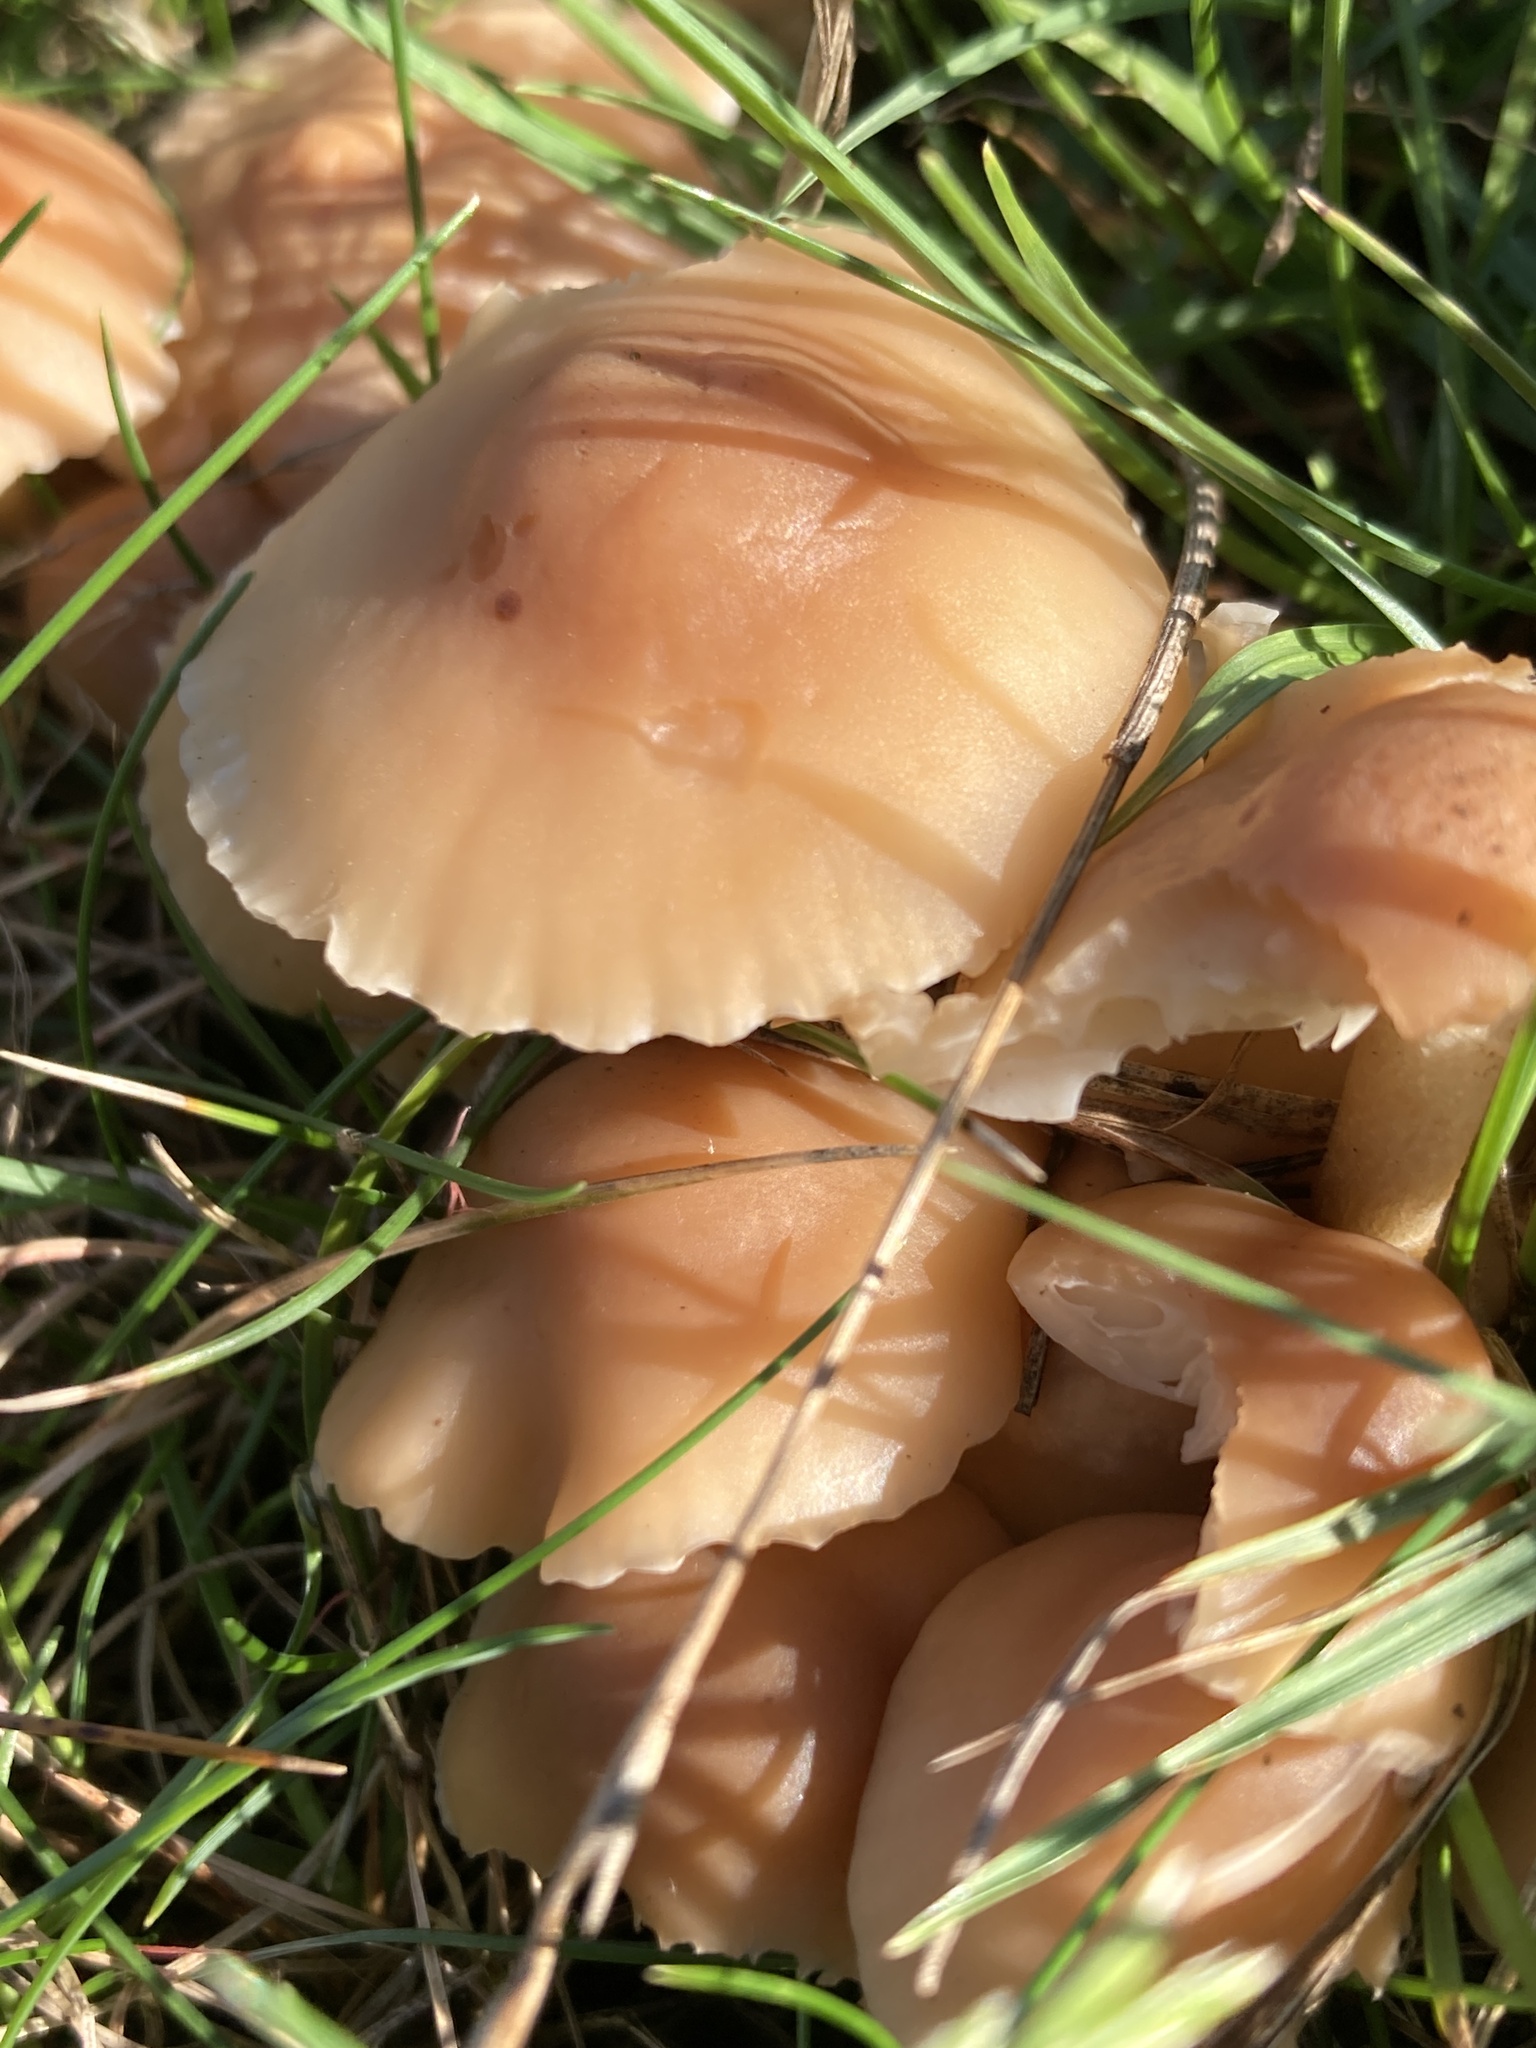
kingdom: Fungi
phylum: Basidiomycota
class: Agaricomycetes
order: Agaricales
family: Marasmiaceae
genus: Marasmius
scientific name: Marasmius oreades
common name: Fairy ring champignon
